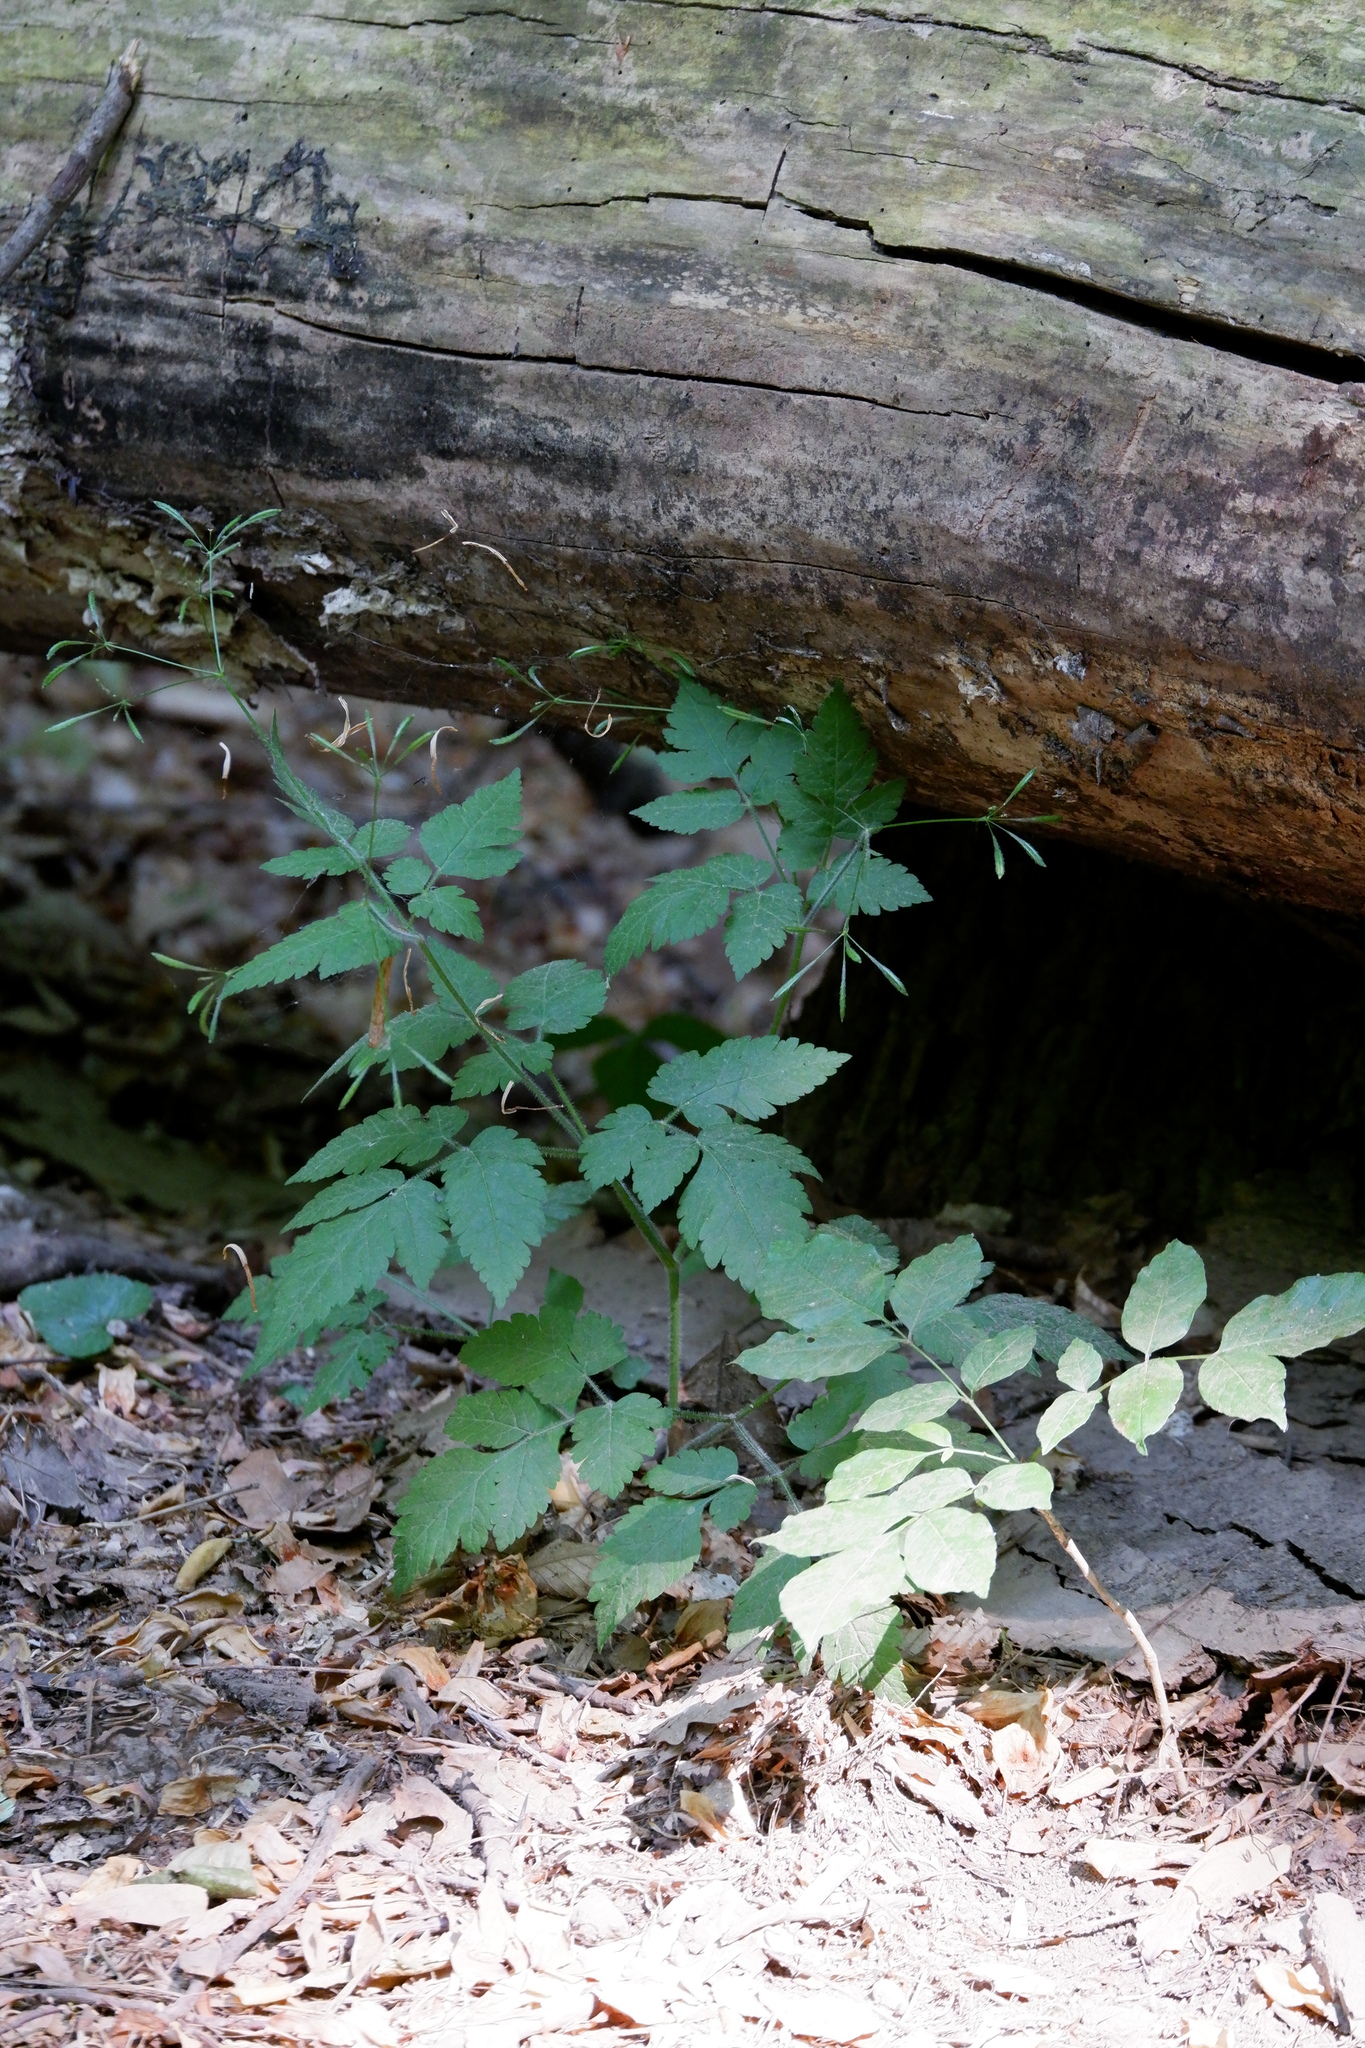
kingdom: Plantae
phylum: Tracheophyta
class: Magnoliopsida
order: Apiales
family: Apiaceae
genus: Osmorhiza
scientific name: Osmorhiza claytonii
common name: Hairy sweet cicely
